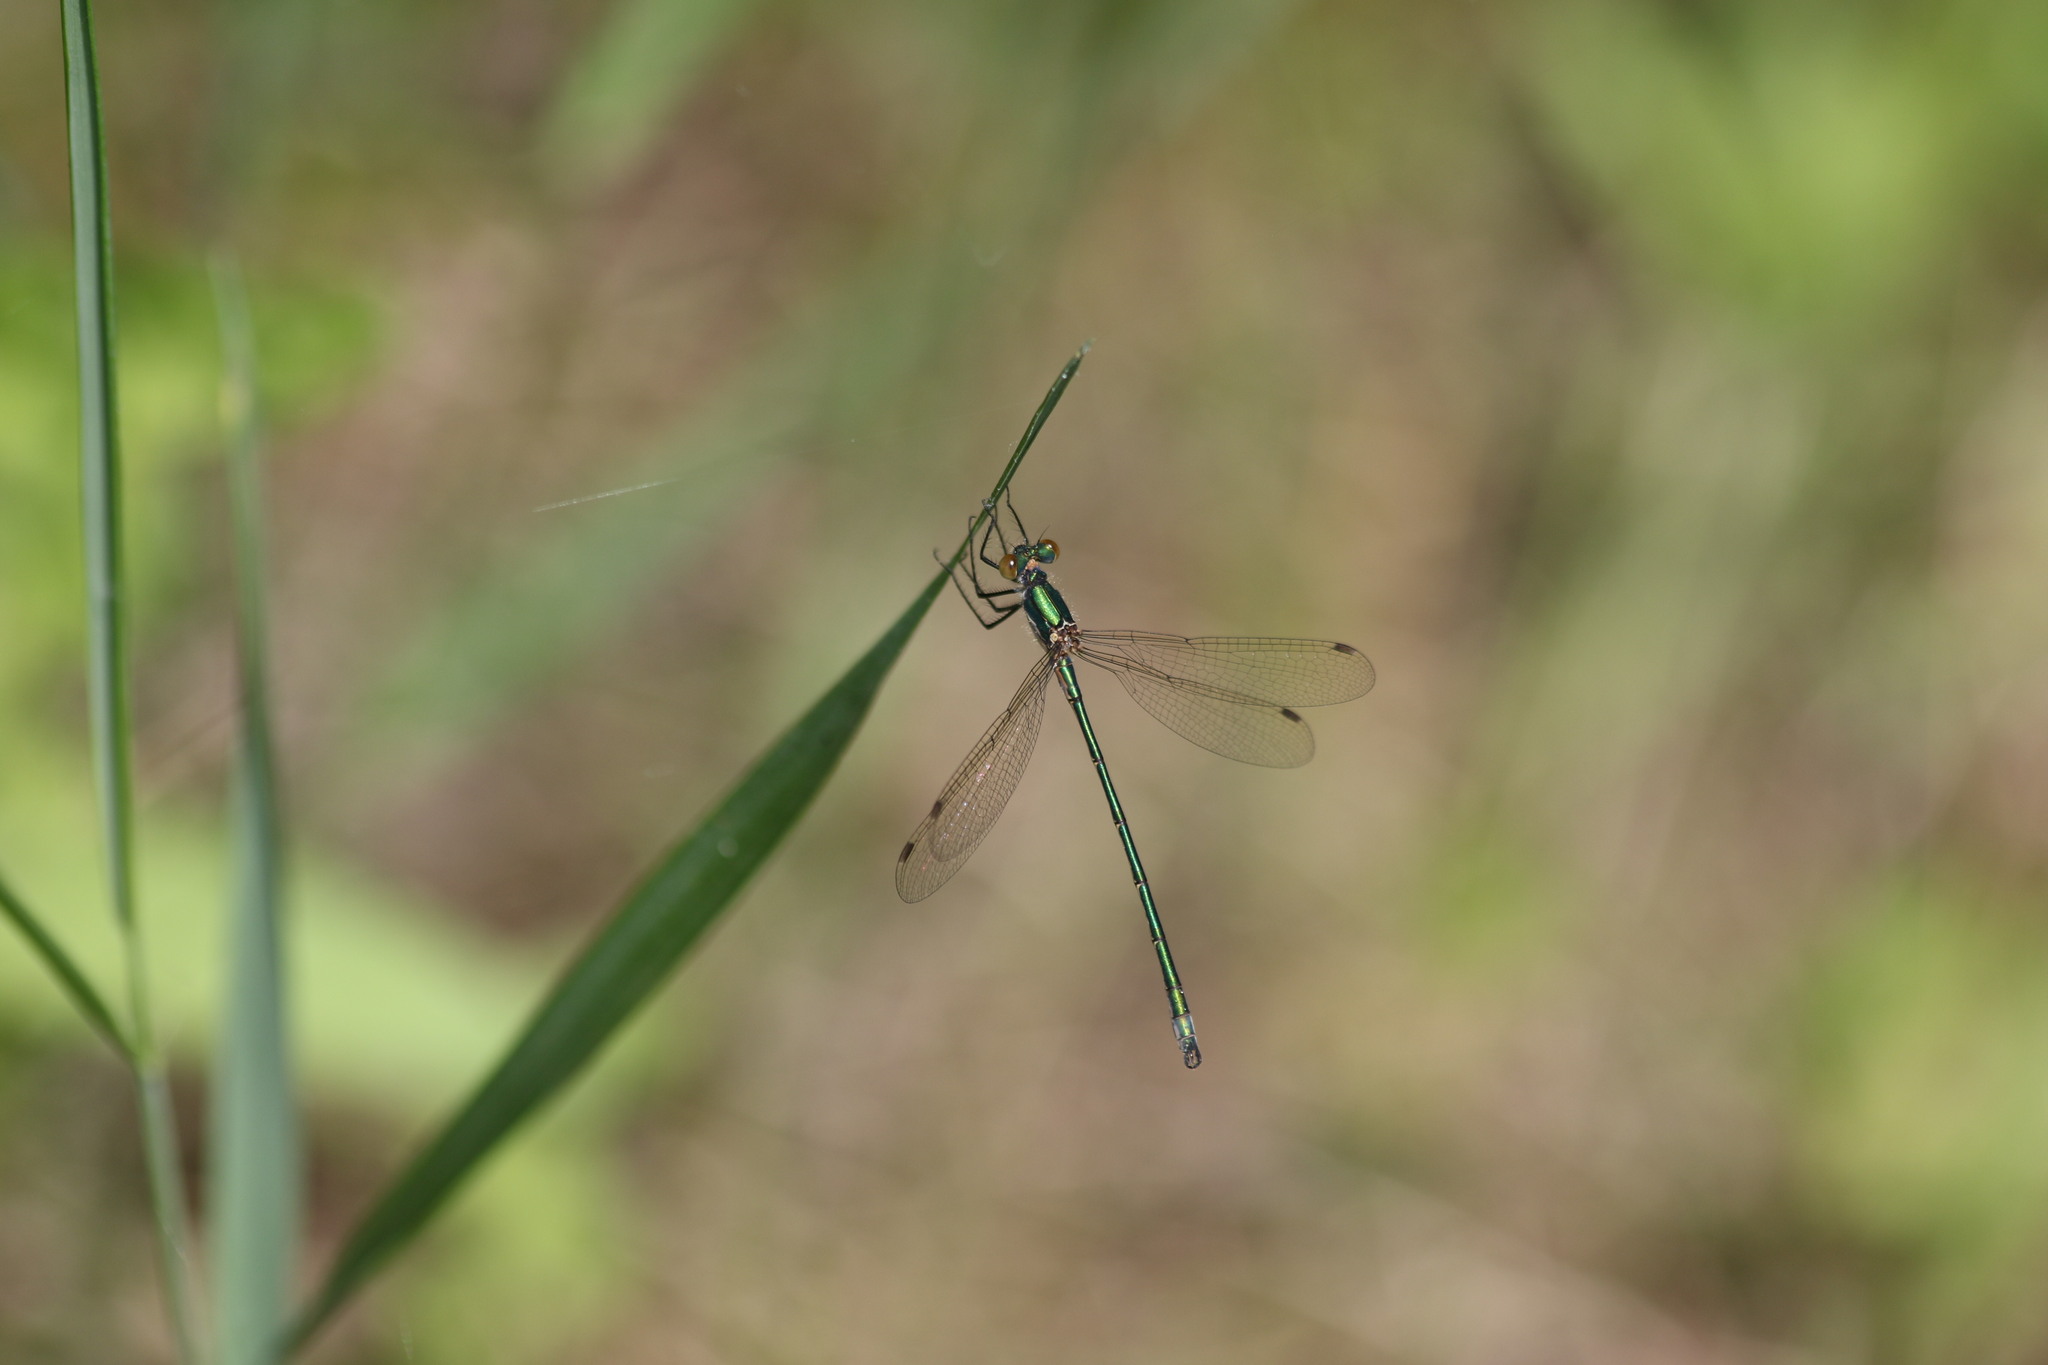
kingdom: Animalia
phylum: Arthropoda
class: Insecta
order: Odonata
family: Lestidae
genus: Lestes
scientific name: Lestes dryas
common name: Scarce emerald damselfly
